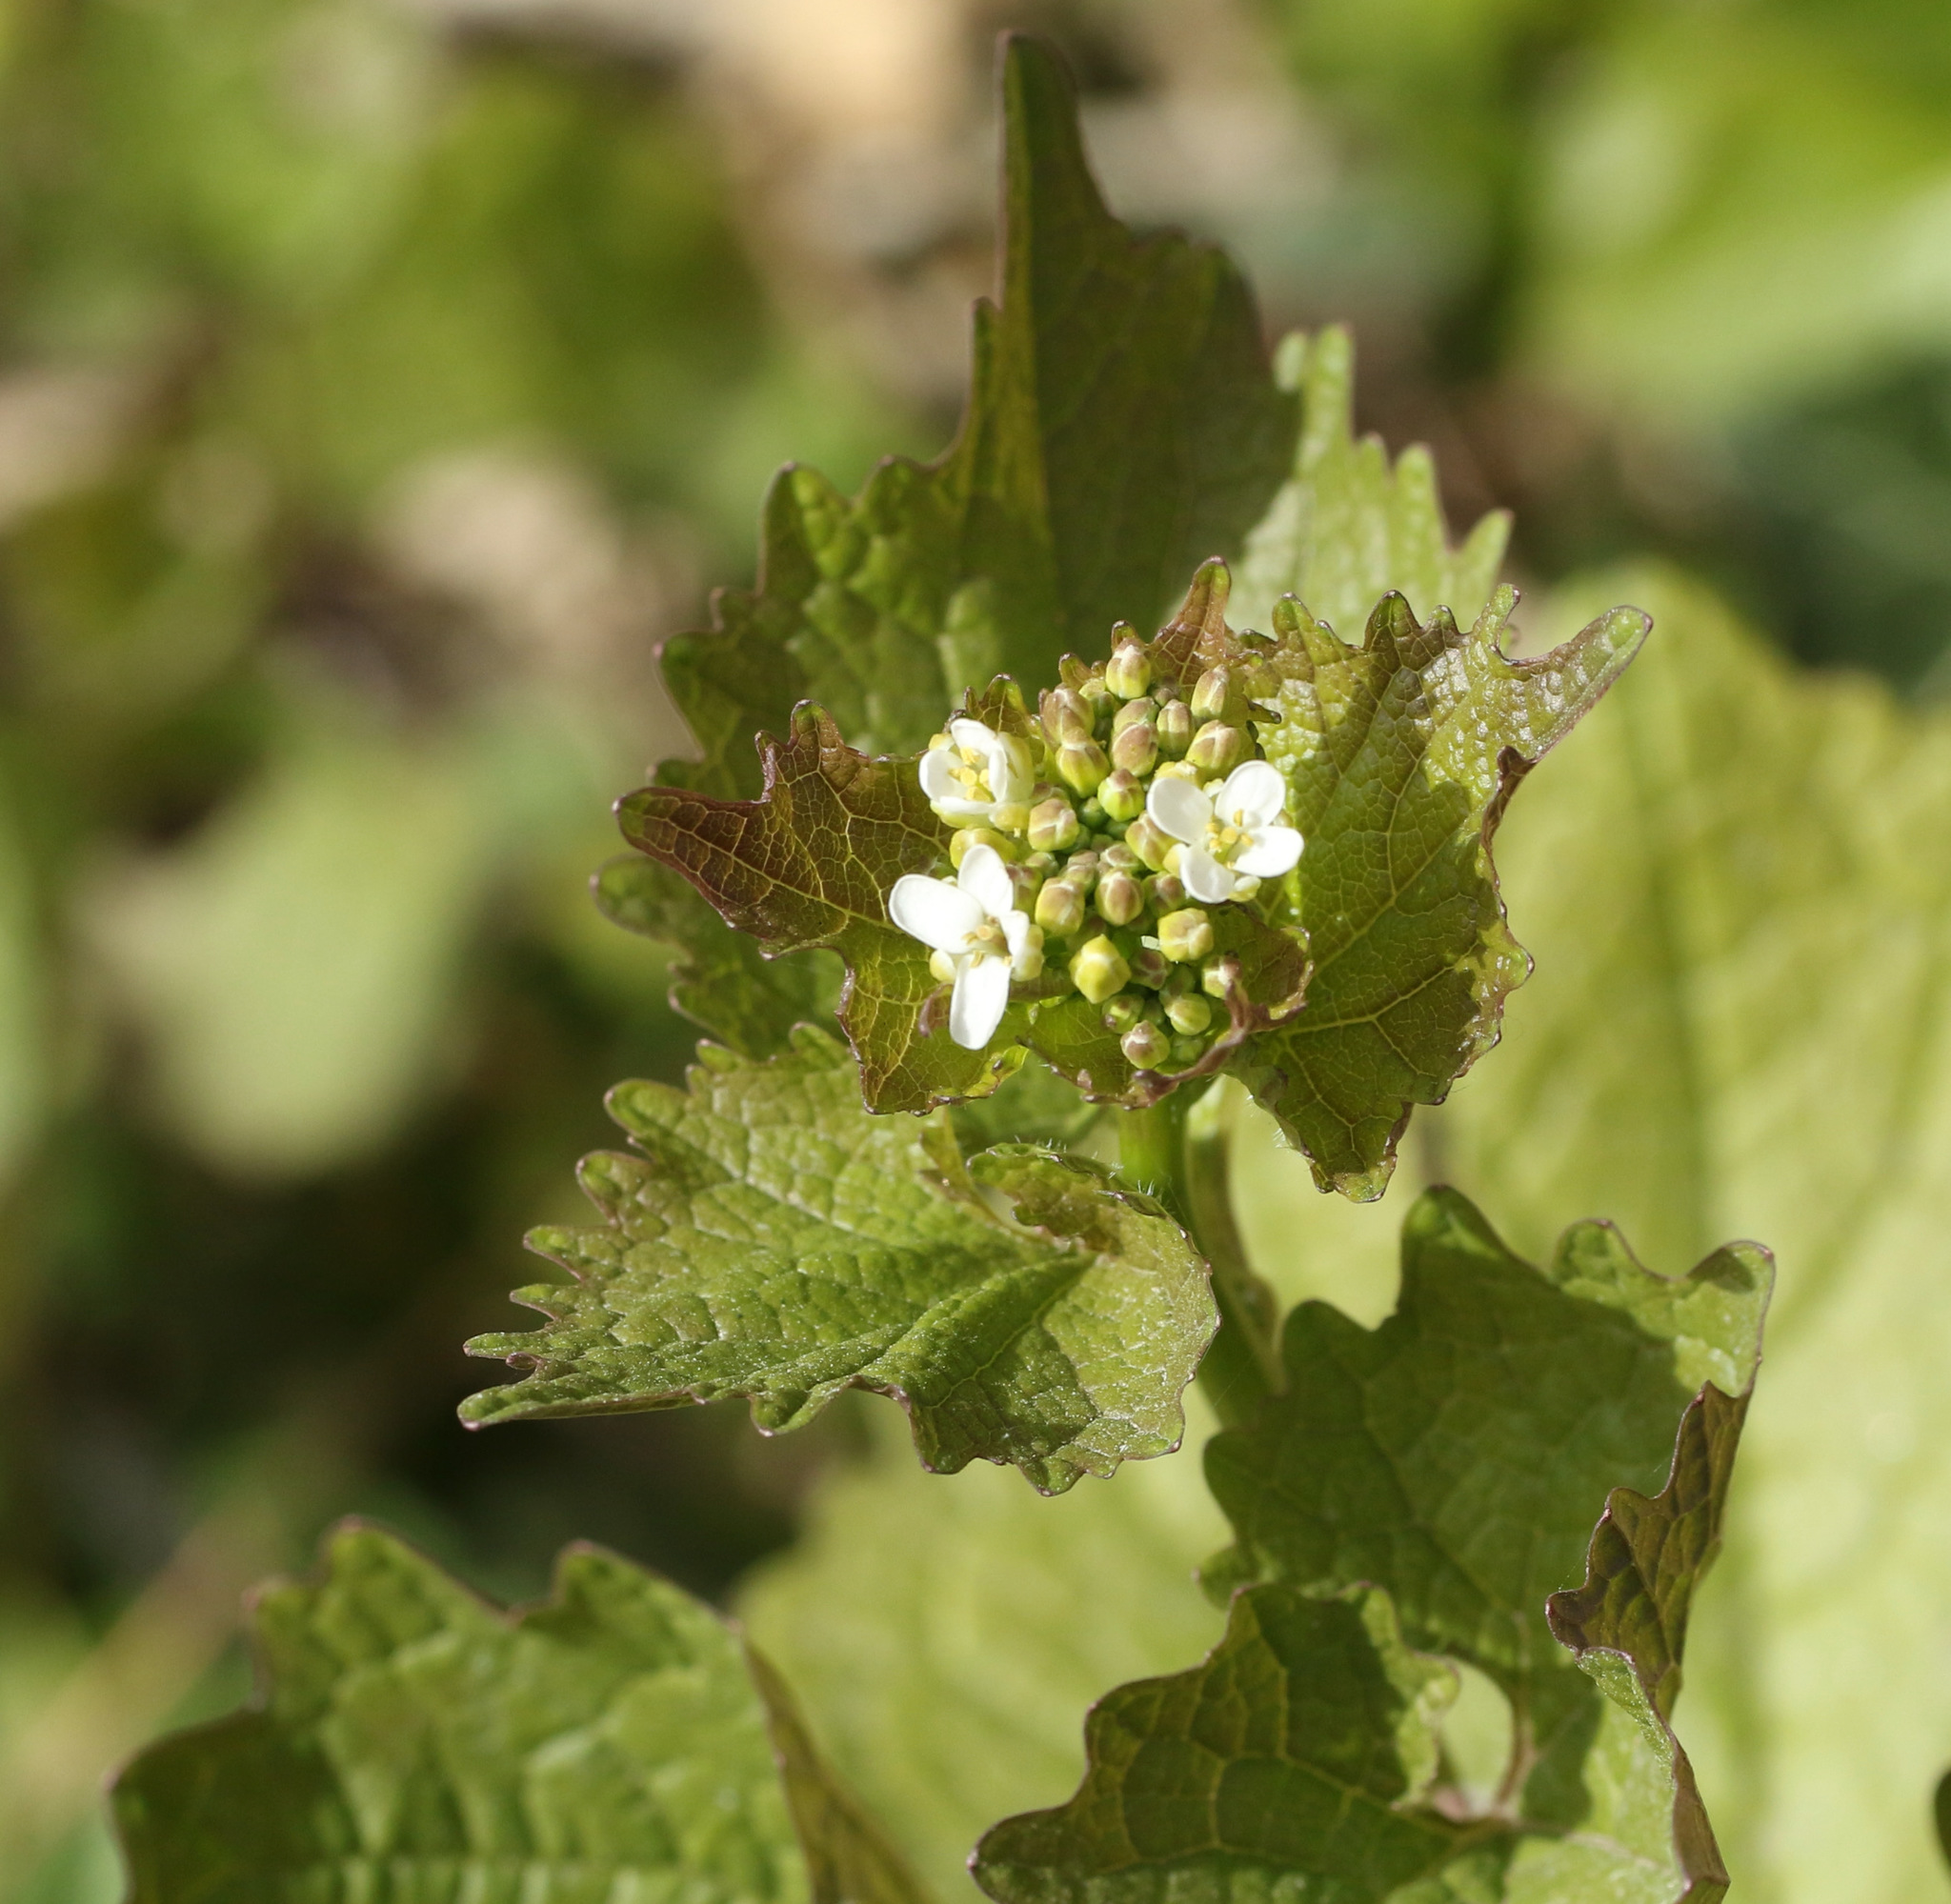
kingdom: Plantae
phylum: Tracheophyta
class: Magnoliopsida
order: Brassicales
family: Brassicaceae
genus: Alliaria
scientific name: Alliaria petiolata
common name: Garlic mustard
